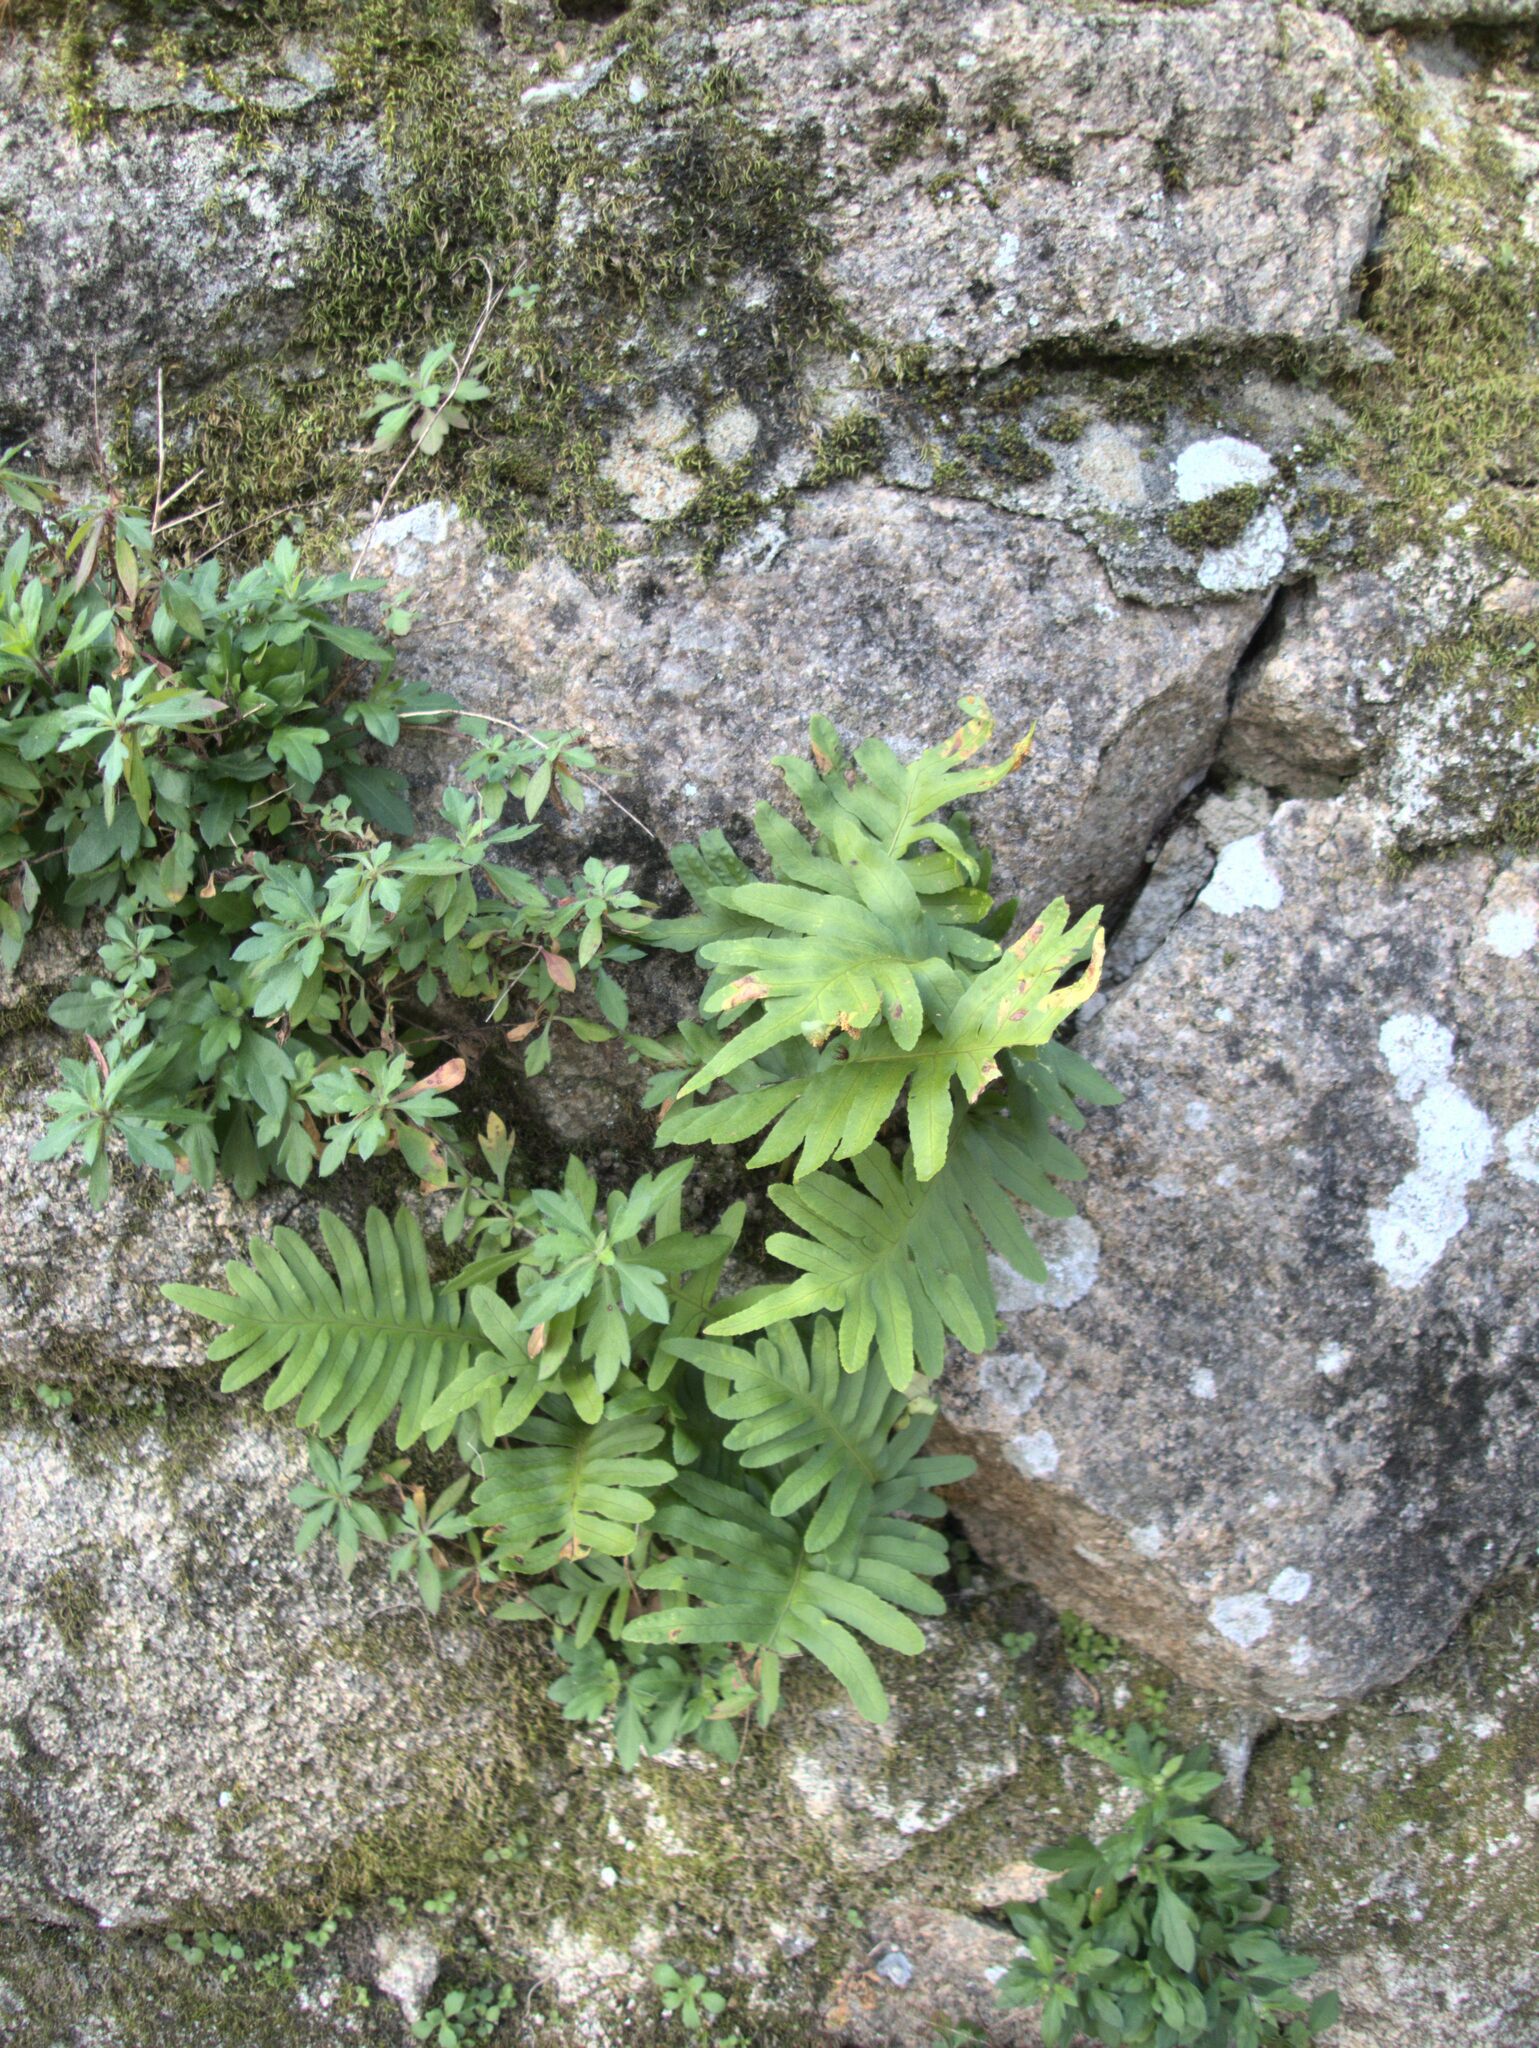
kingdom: Plantae
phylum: Tracheophyta
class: Polypodiopsida
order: Polypodiales
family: Polypodiaceae
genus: Polypodium
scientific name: Polypodium cambricum
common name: Southern polypody
